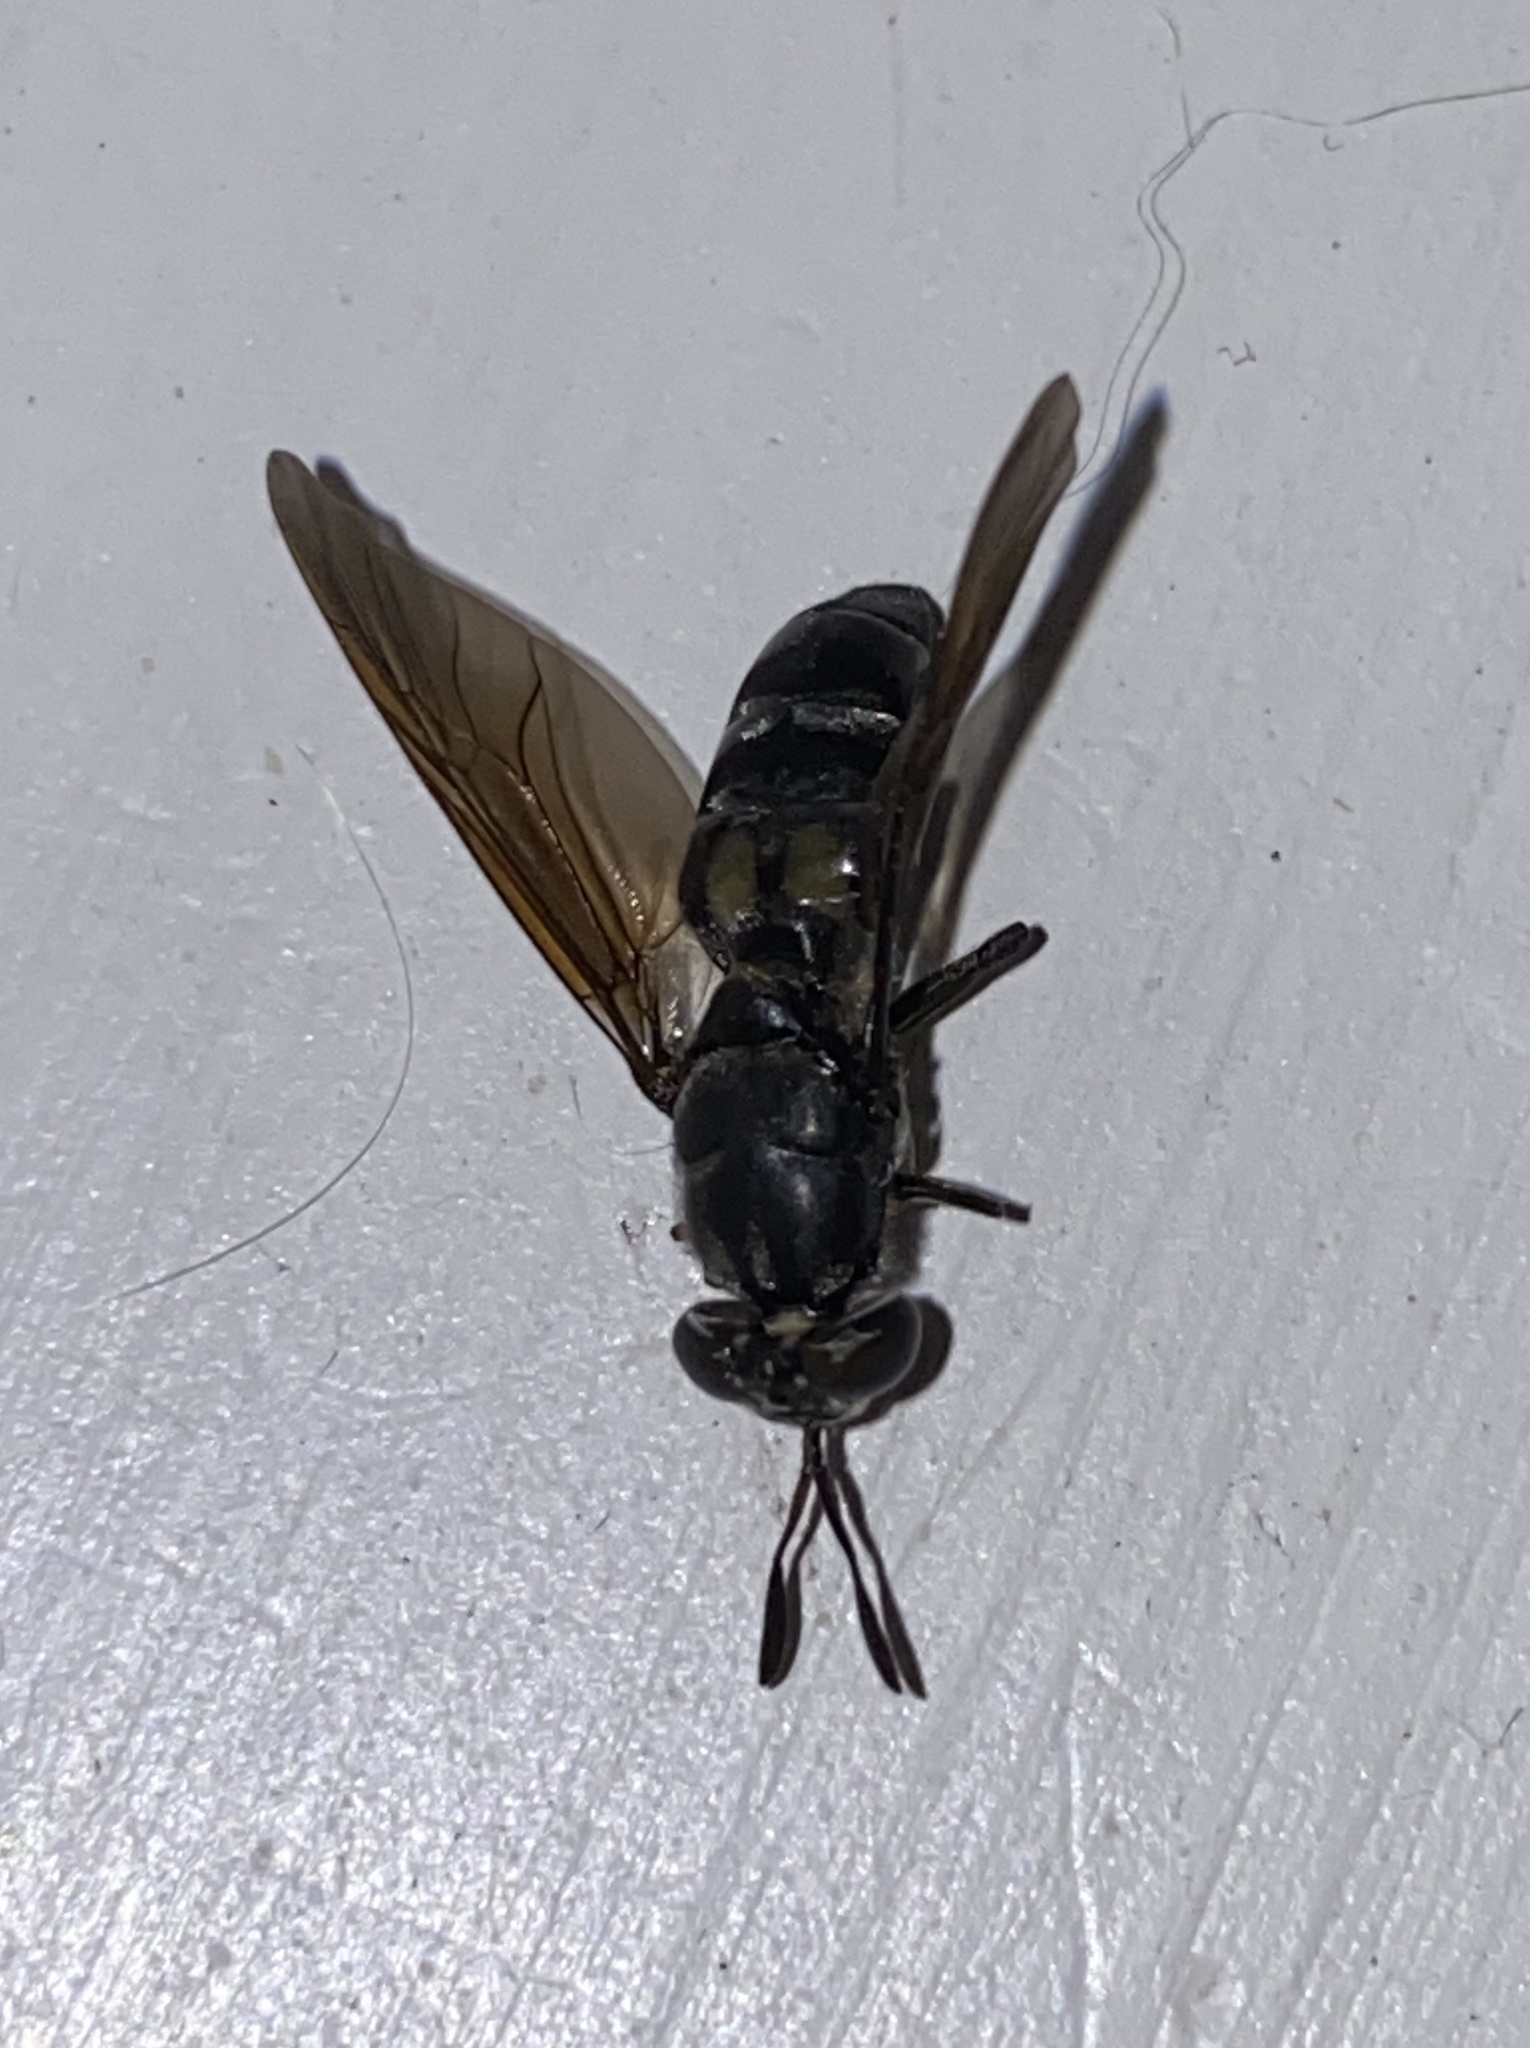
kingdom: Animalia
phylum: Arthropoda
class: Insecta
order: Diptera
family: Stratiomyidae
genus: Hermetia
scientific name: Hermetia illucens
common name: Black soldier fly
